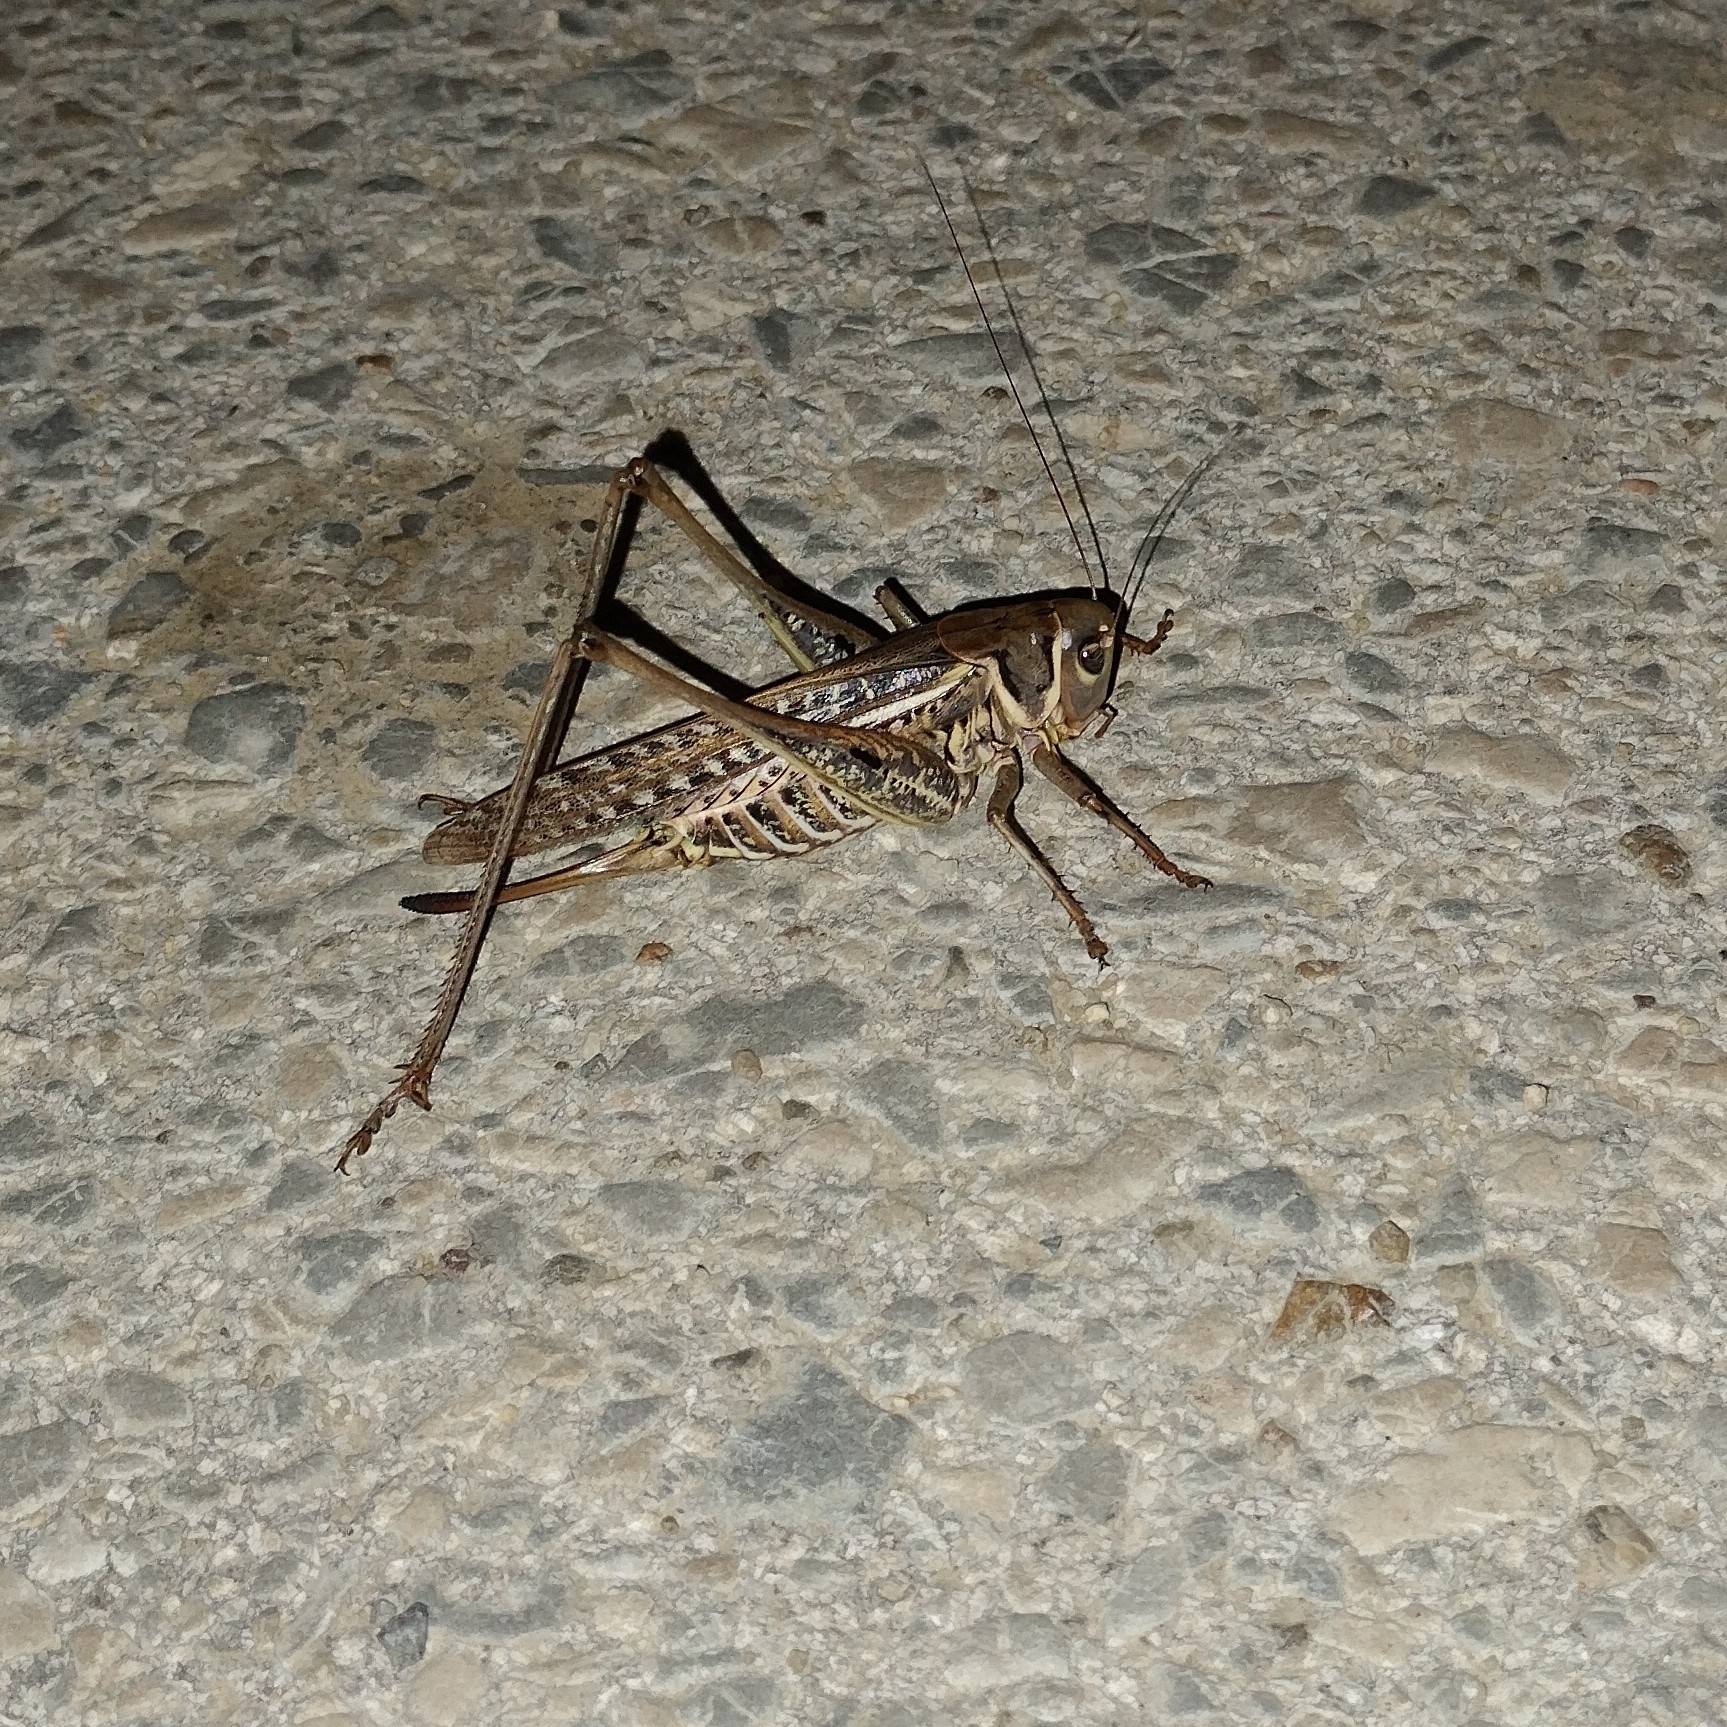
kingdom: Animalia
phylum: Arthropoda
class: Insecta
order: Orthoptera
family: Tettigoniidae
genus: Decticus
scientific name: Decticus albifrons
